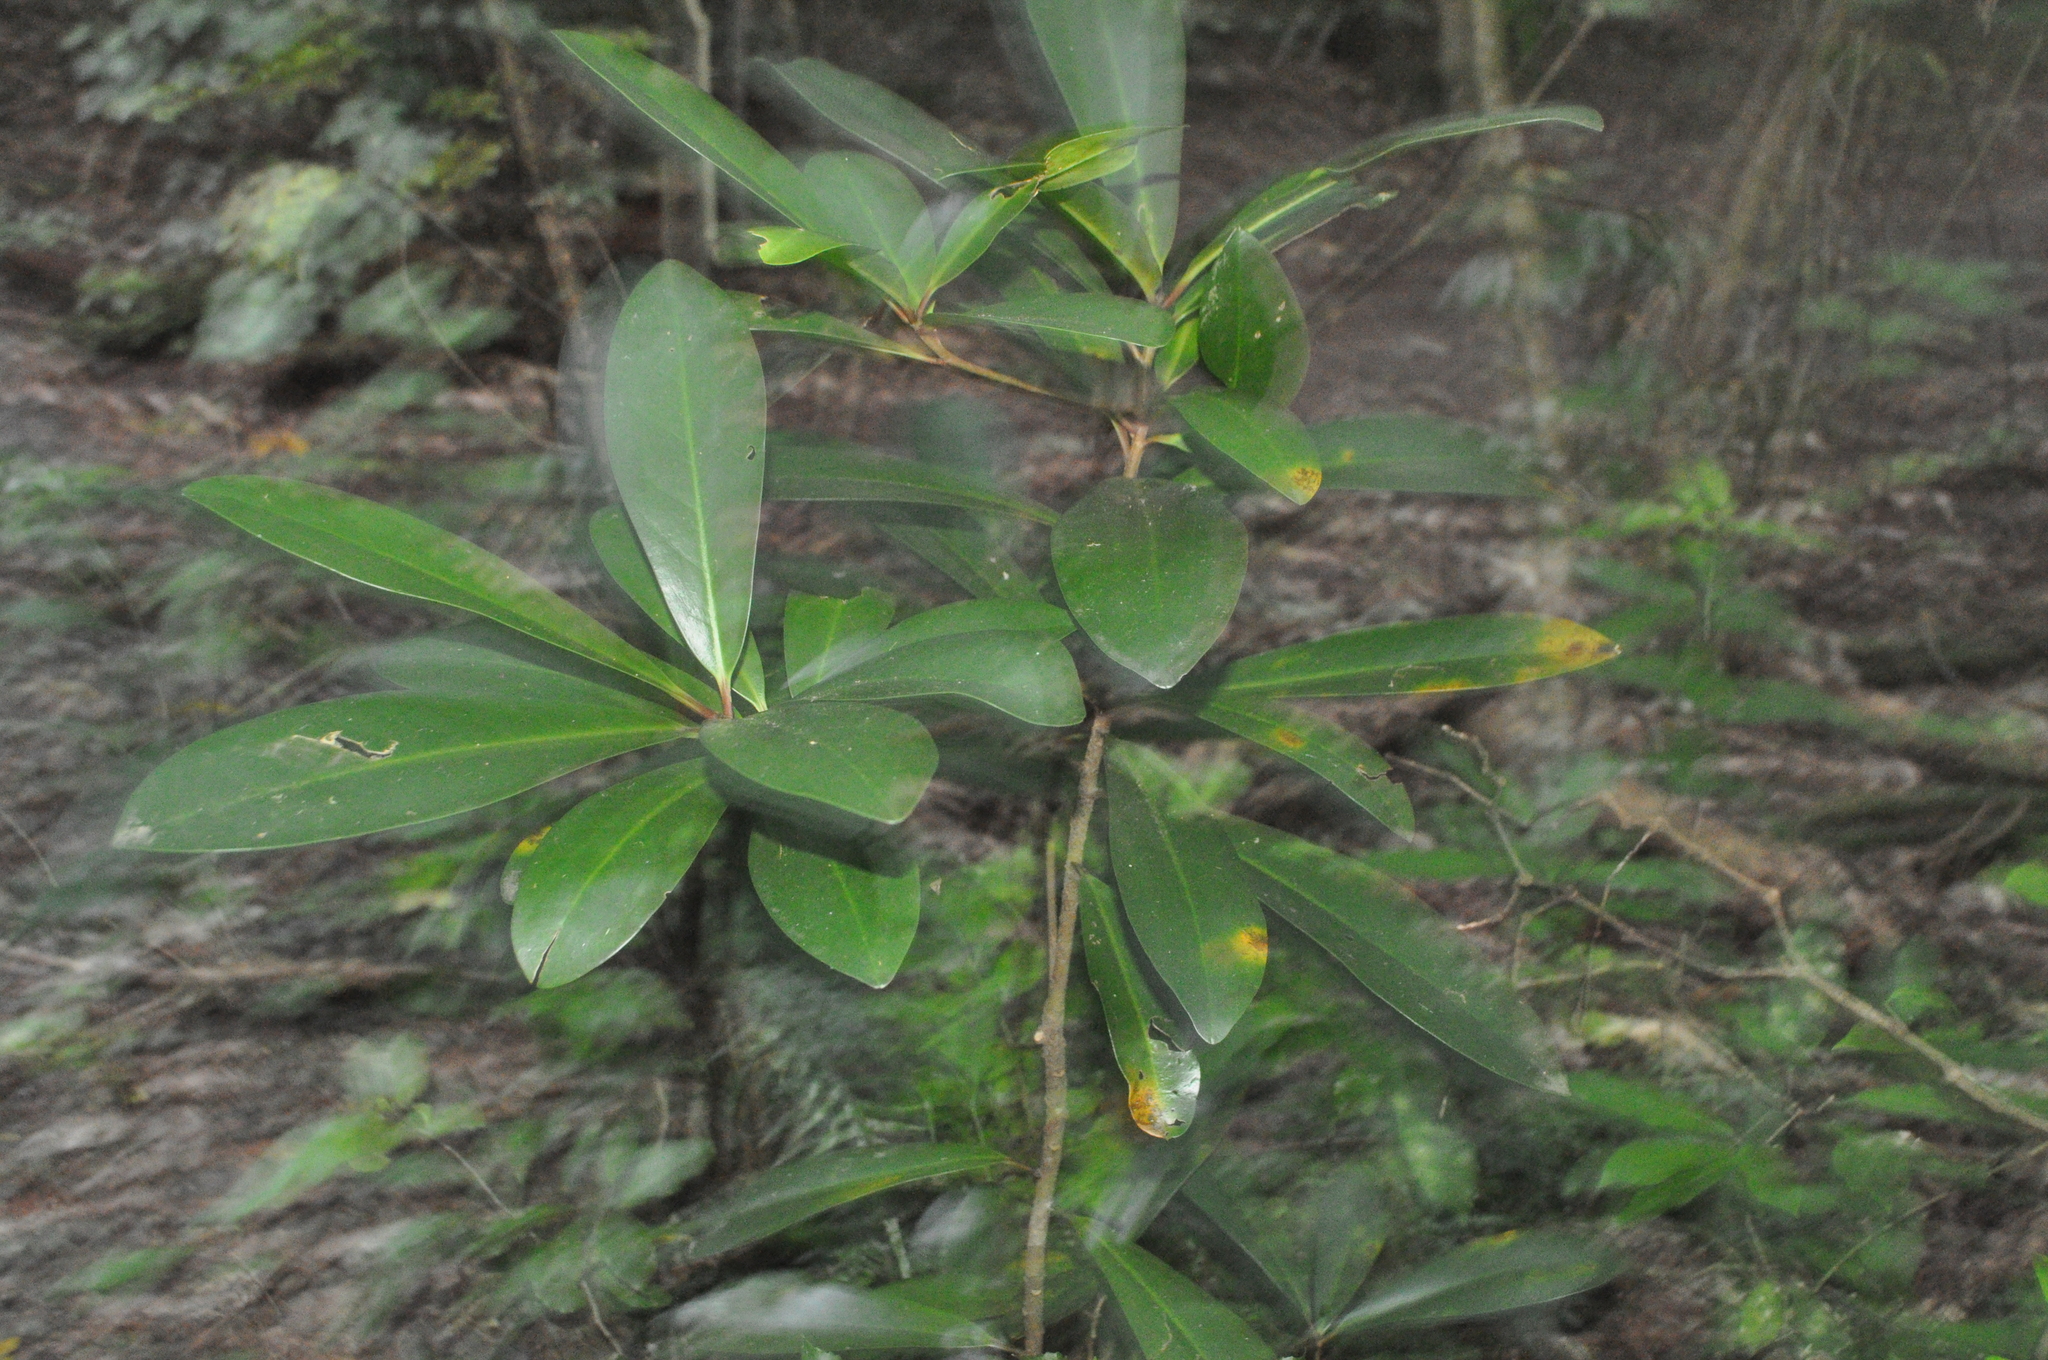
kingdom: Plantae
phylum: Tracheophyta
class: Magnoliopsida
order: Cucurbitales
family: Corynocarpaceae
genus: Corynocarpus
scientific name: Corynocarpus laevigatus
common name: New zealand laurel
